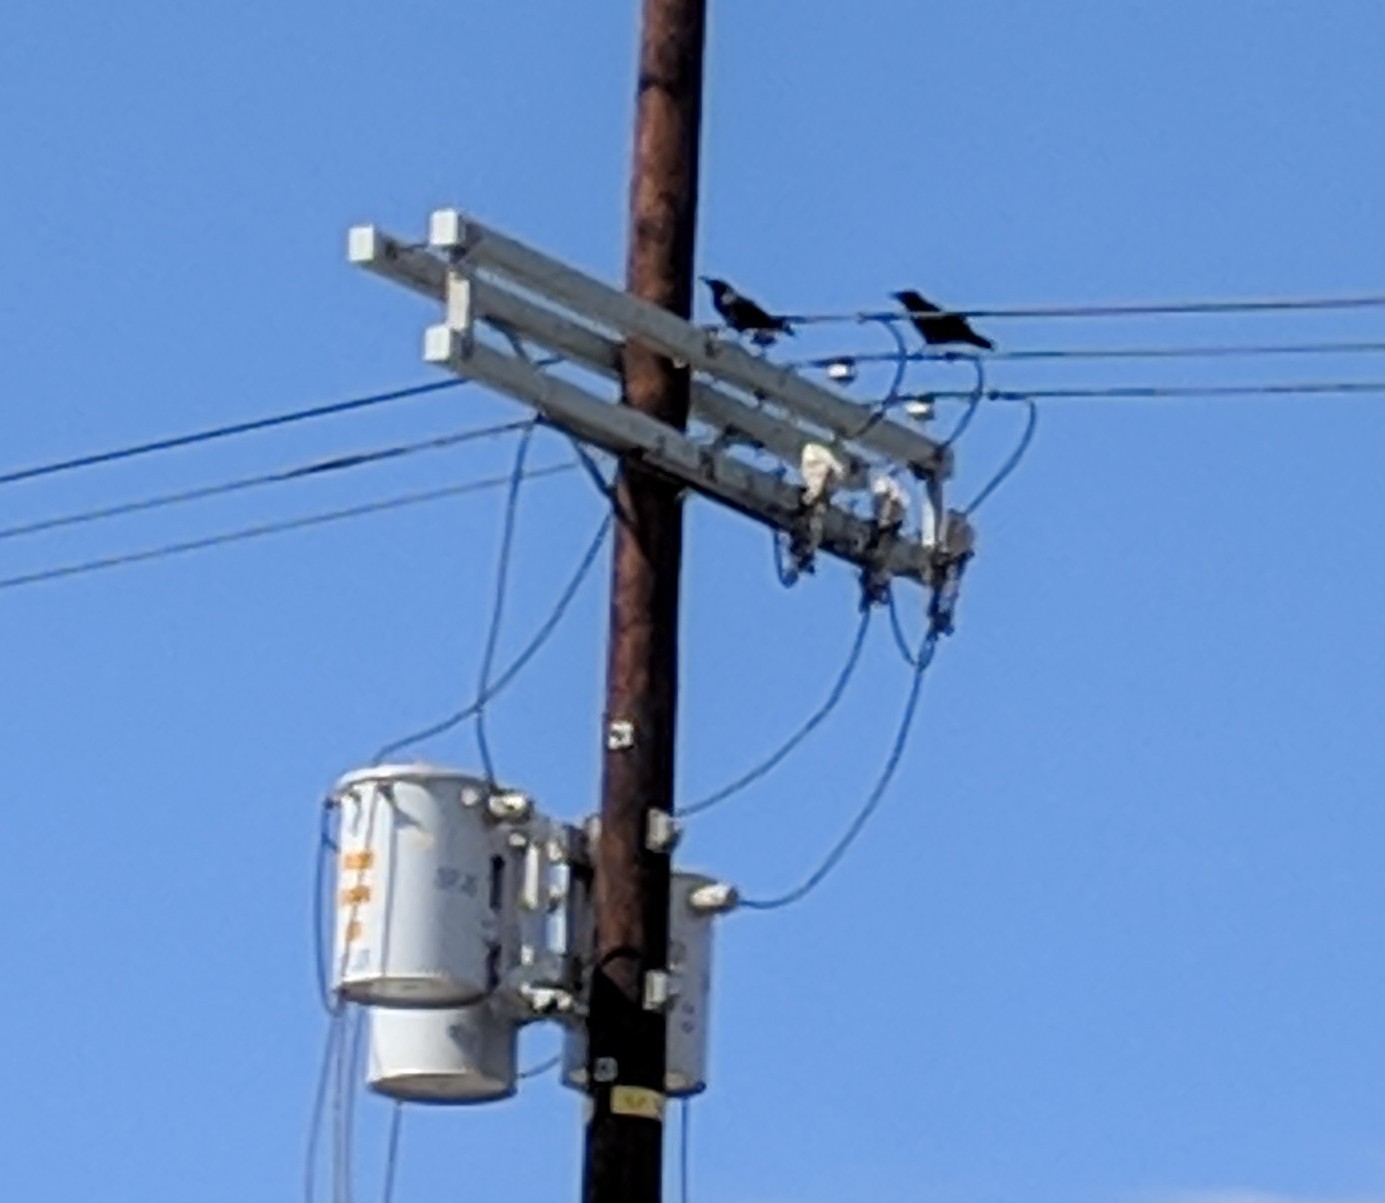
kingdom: Animalia
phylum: Chordata
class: Aves
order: Passeriformes
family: Corvidae
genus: Corvus
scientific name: Corvus brachyrhynchos
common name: American crow
